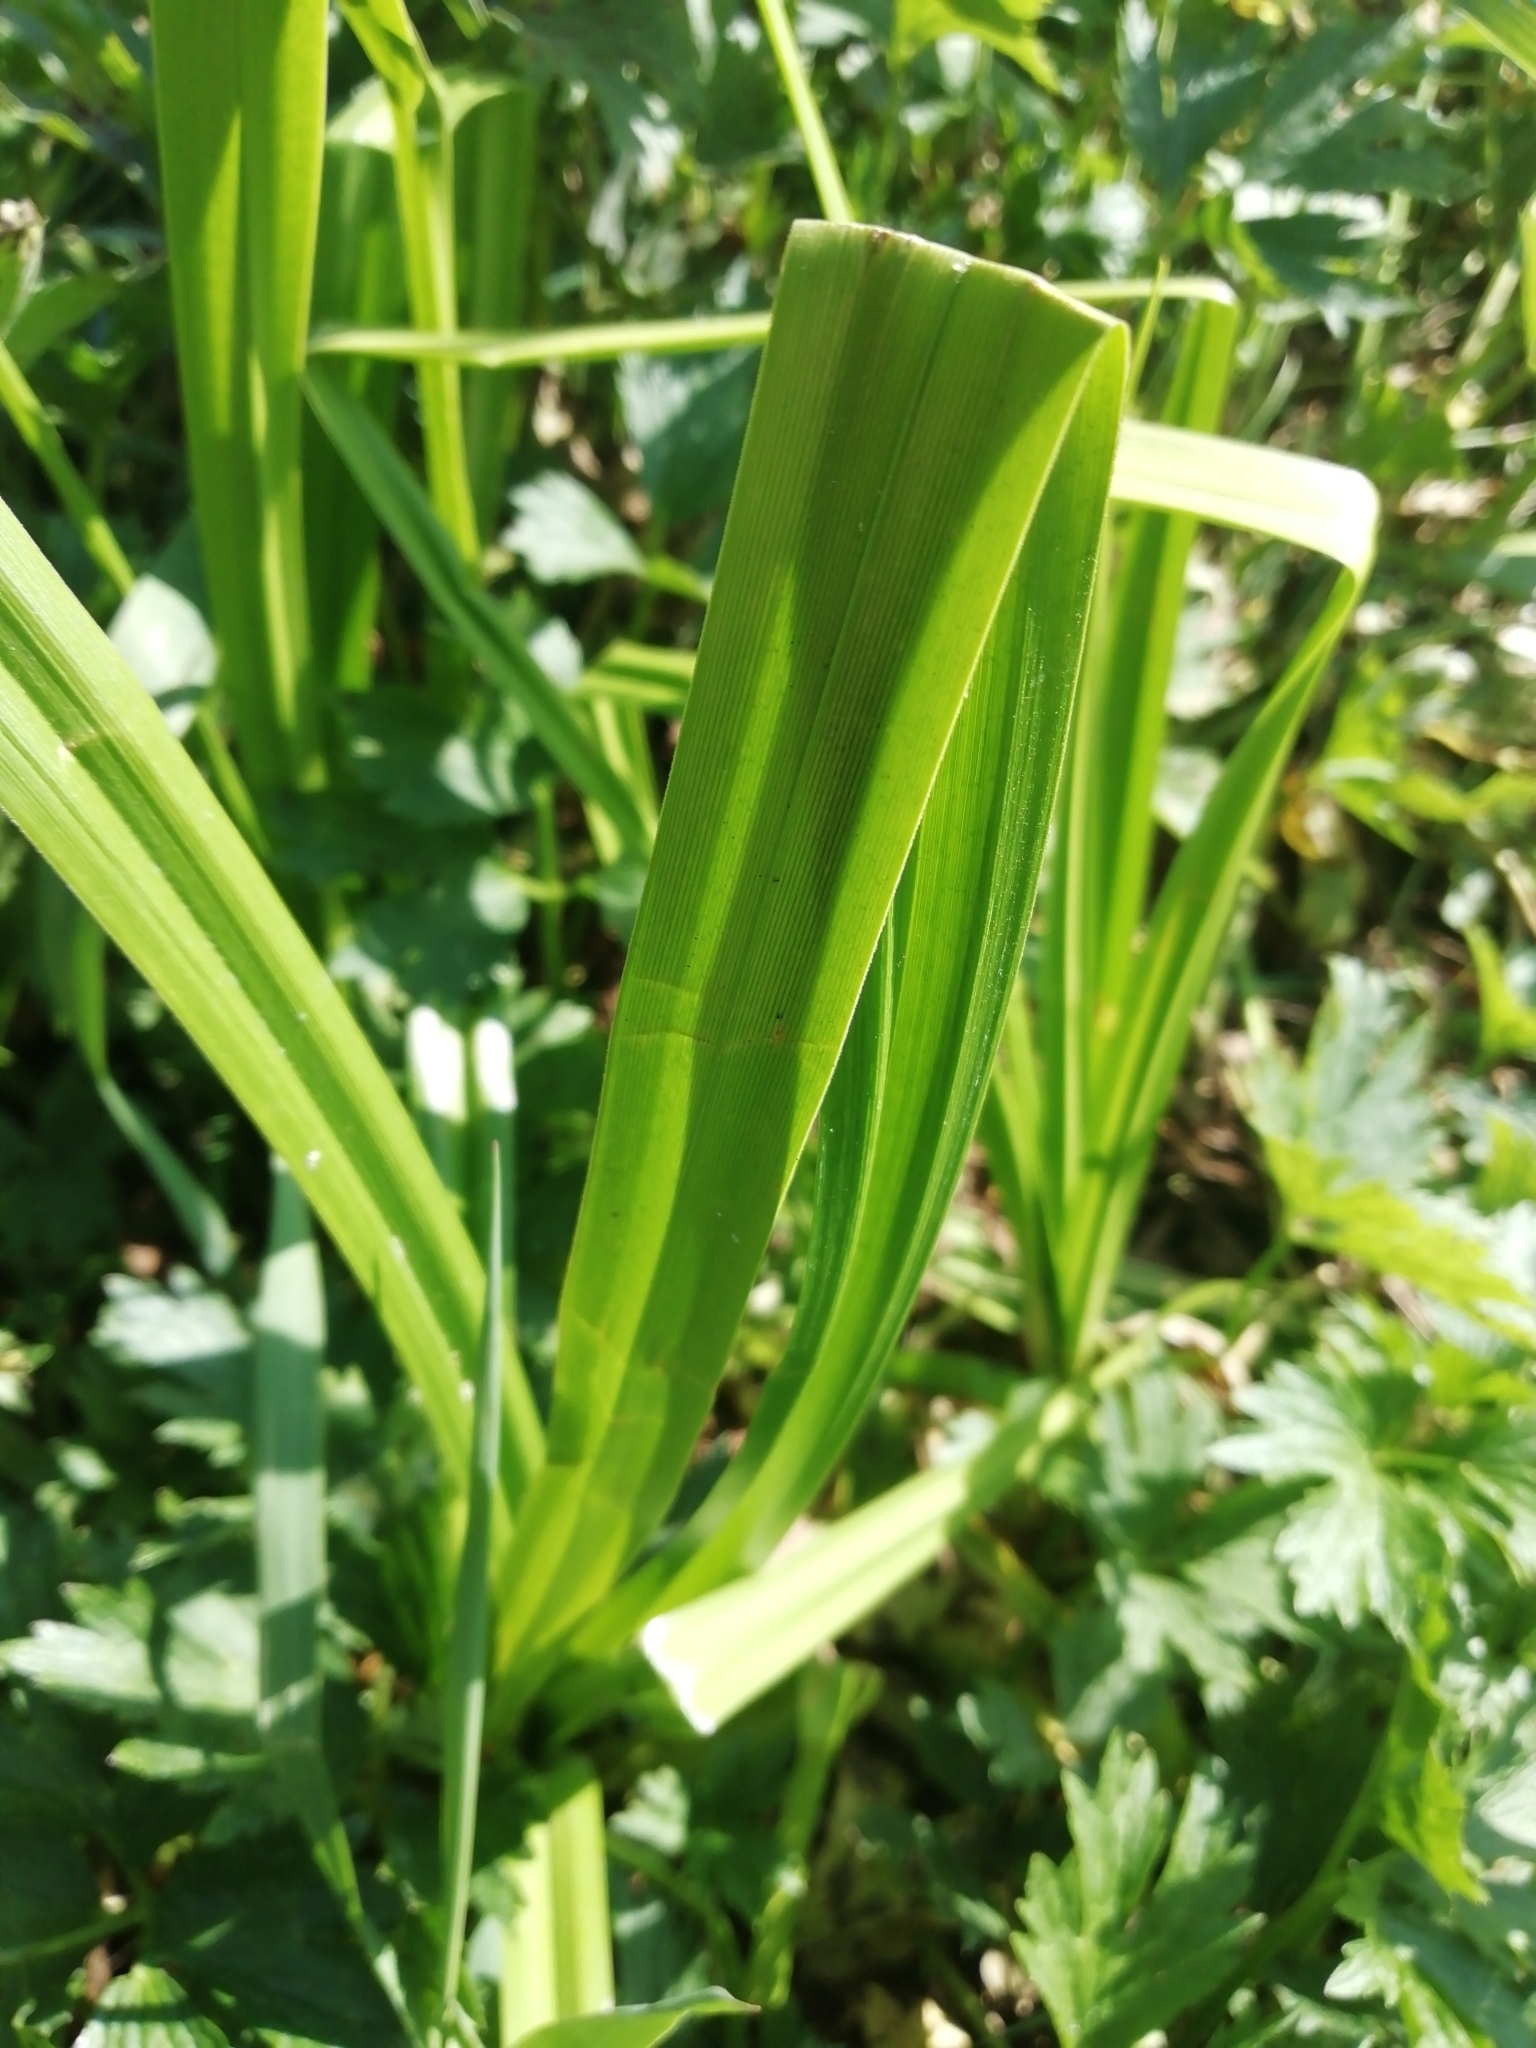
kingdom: Plantae
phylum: Tracheophyta
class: Liliopsida
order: Poales
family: Cyperaceae
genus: Scirpus
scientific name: Scirpus sylvaticus
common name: Wood club-rush
